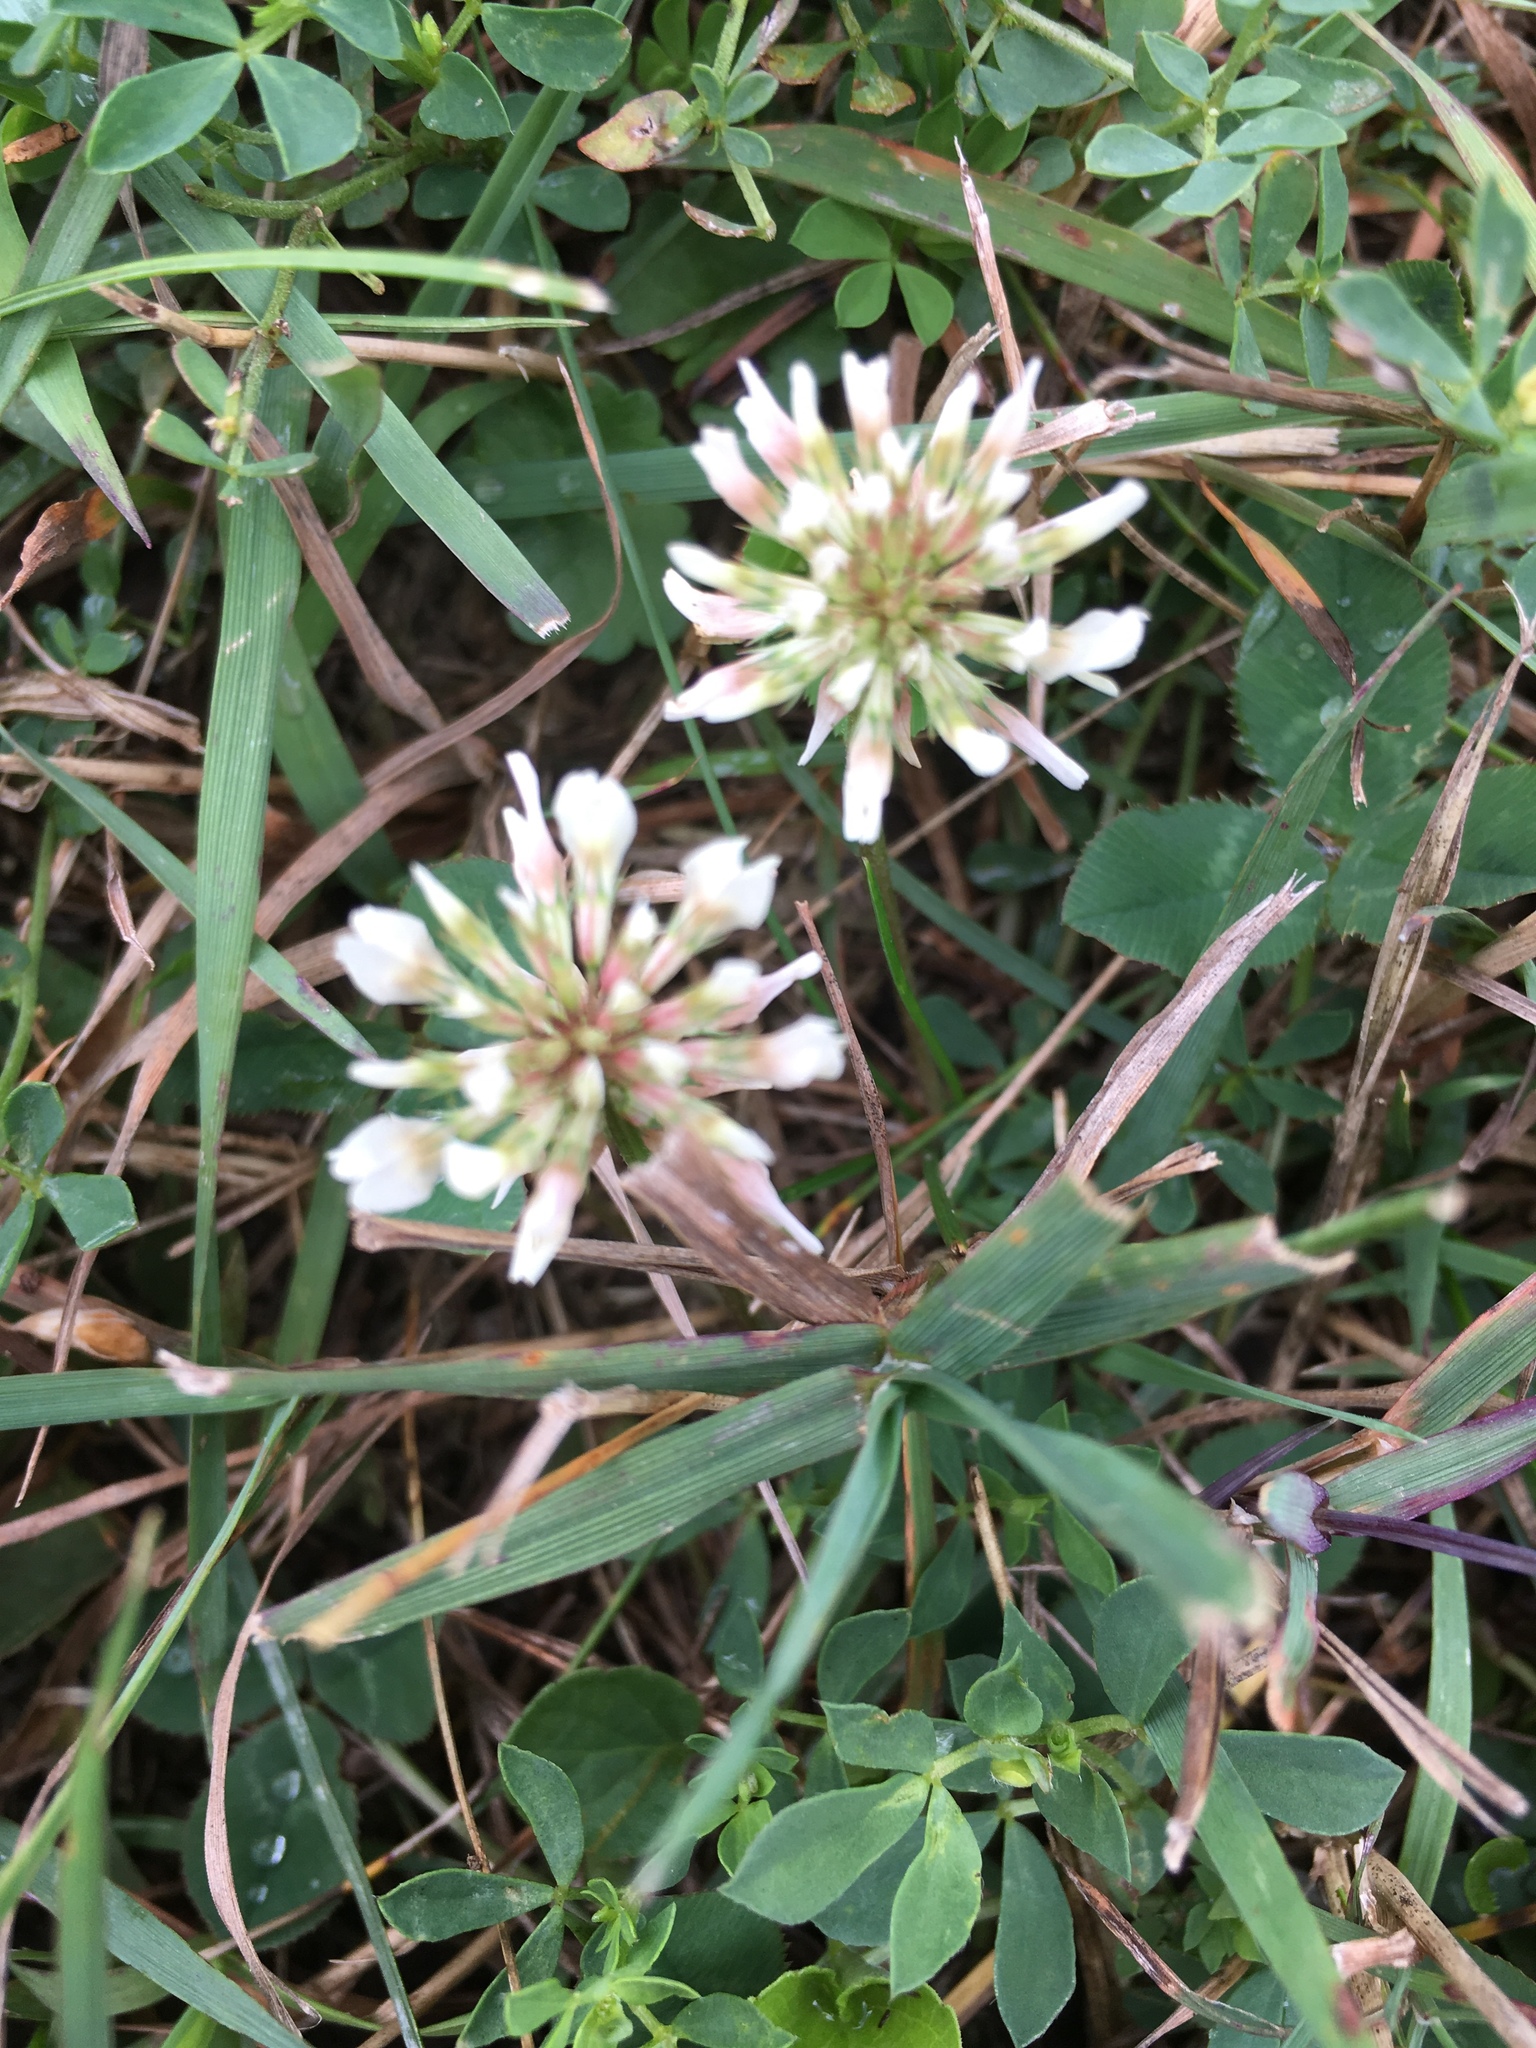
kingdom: Plantae
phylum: Tracheophyta
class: Magnoliopsida
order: Fabales
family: Fabaceae
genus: Trifolium
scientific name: Trifolium repens
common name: White clover
